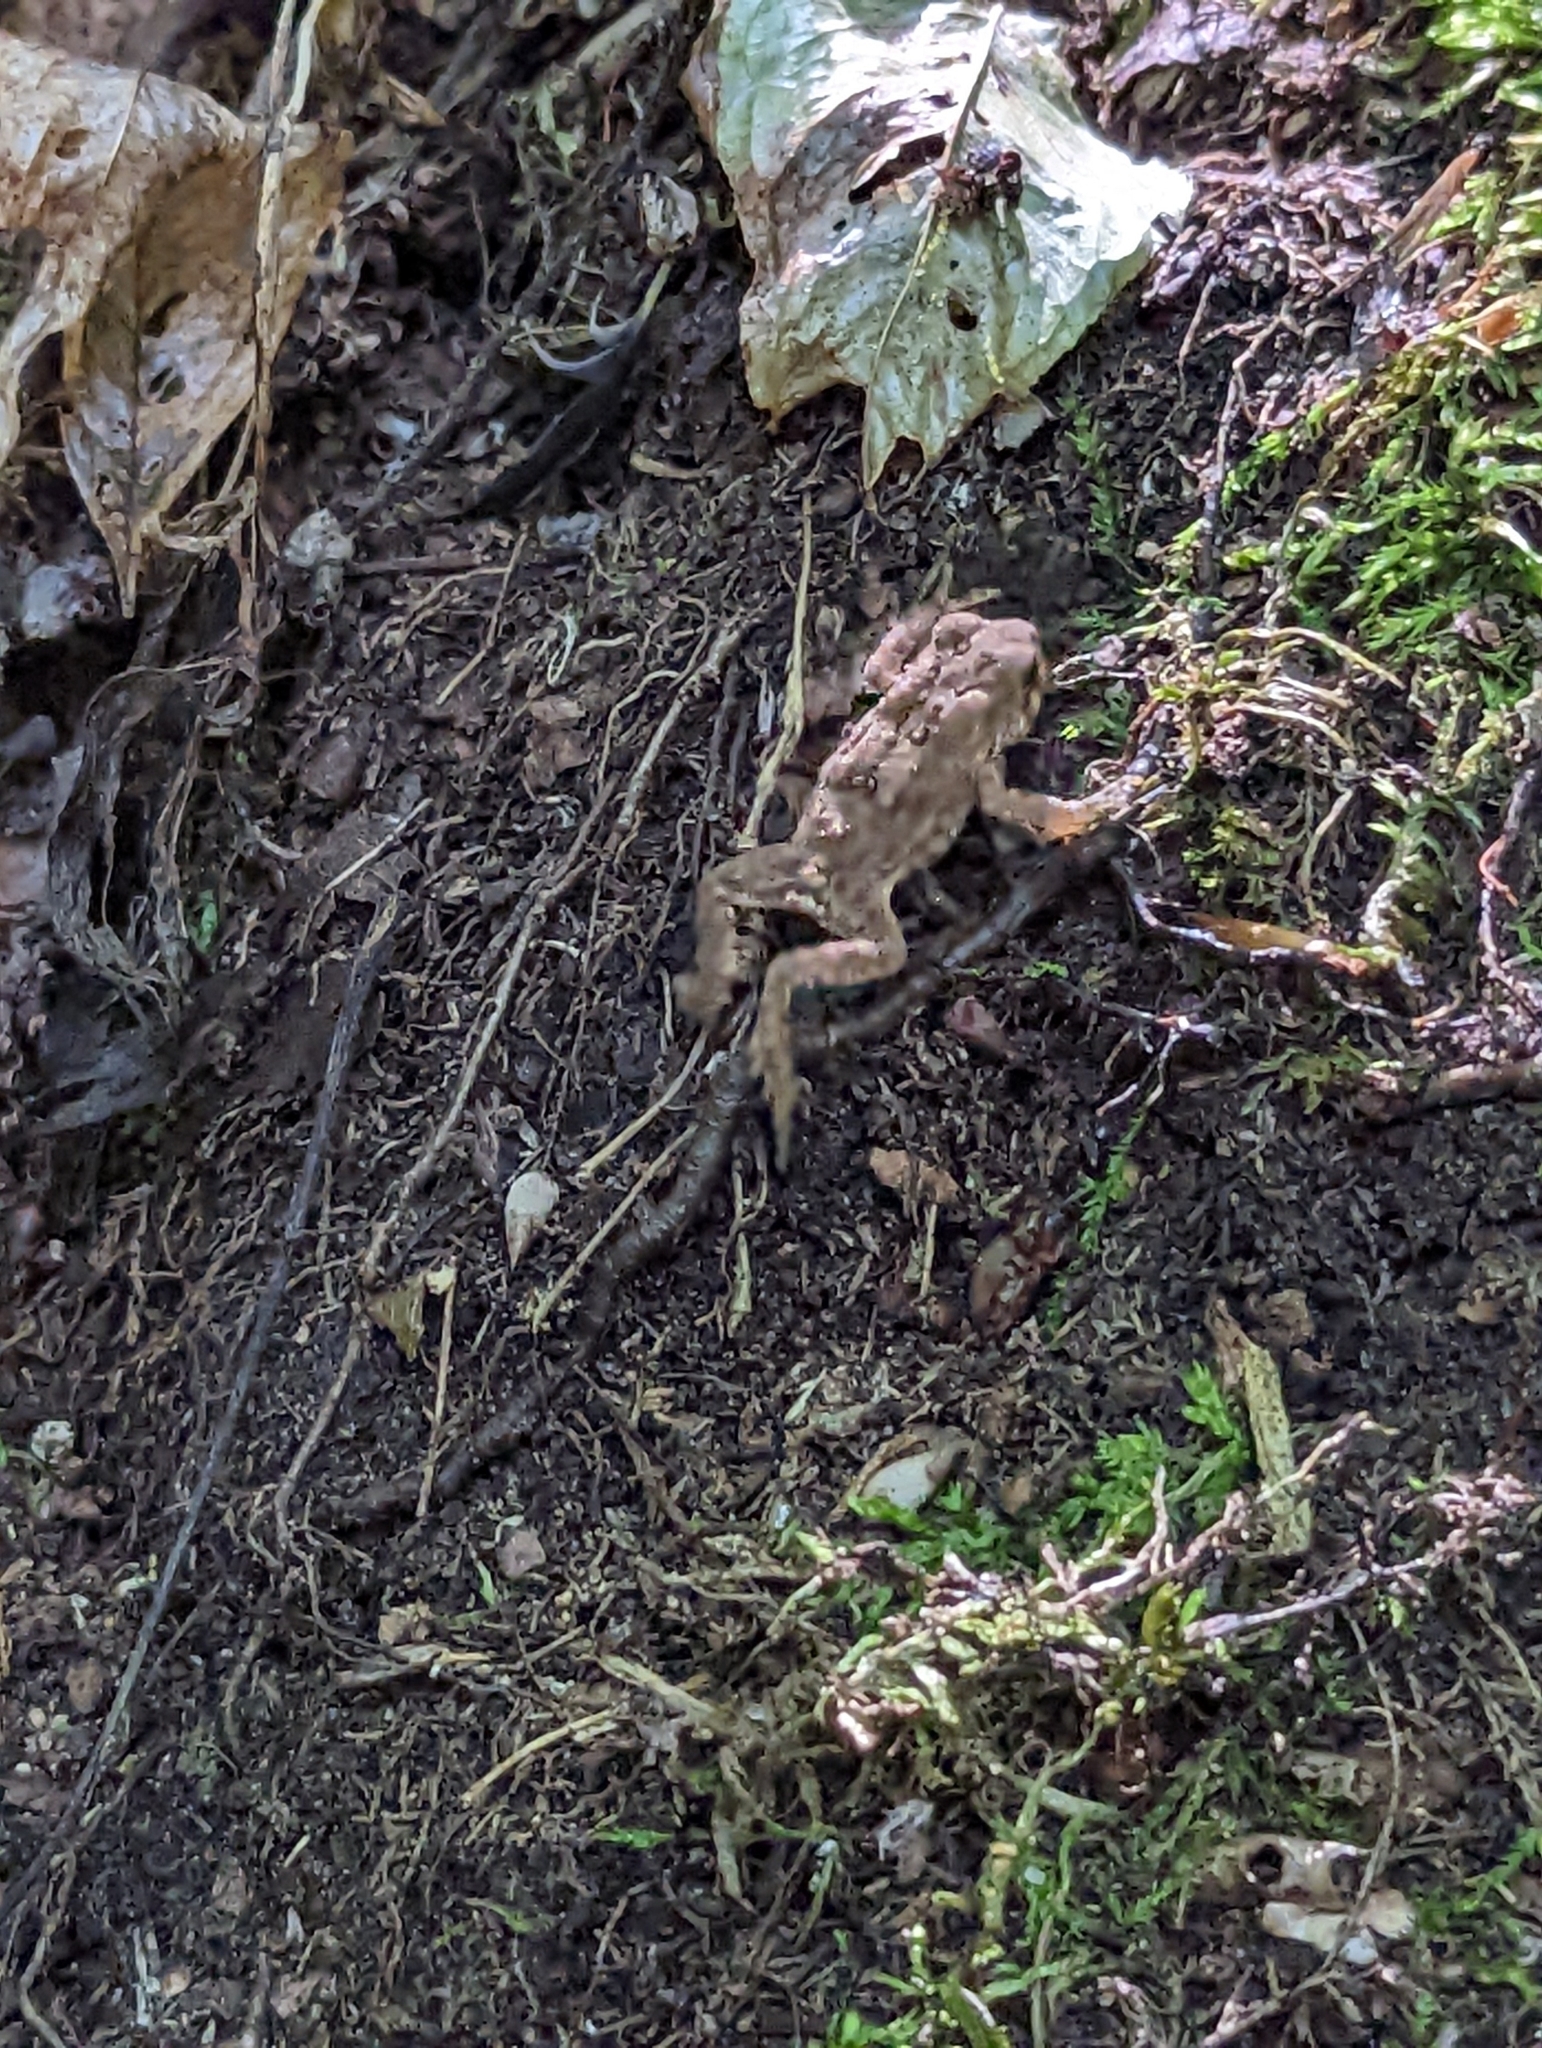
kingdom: Animalia
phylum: Chordata
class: Amphibia
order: Anura
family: Bufonidae
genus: Anaxyrus
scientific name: Anaxyrus americanus
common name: American toad
